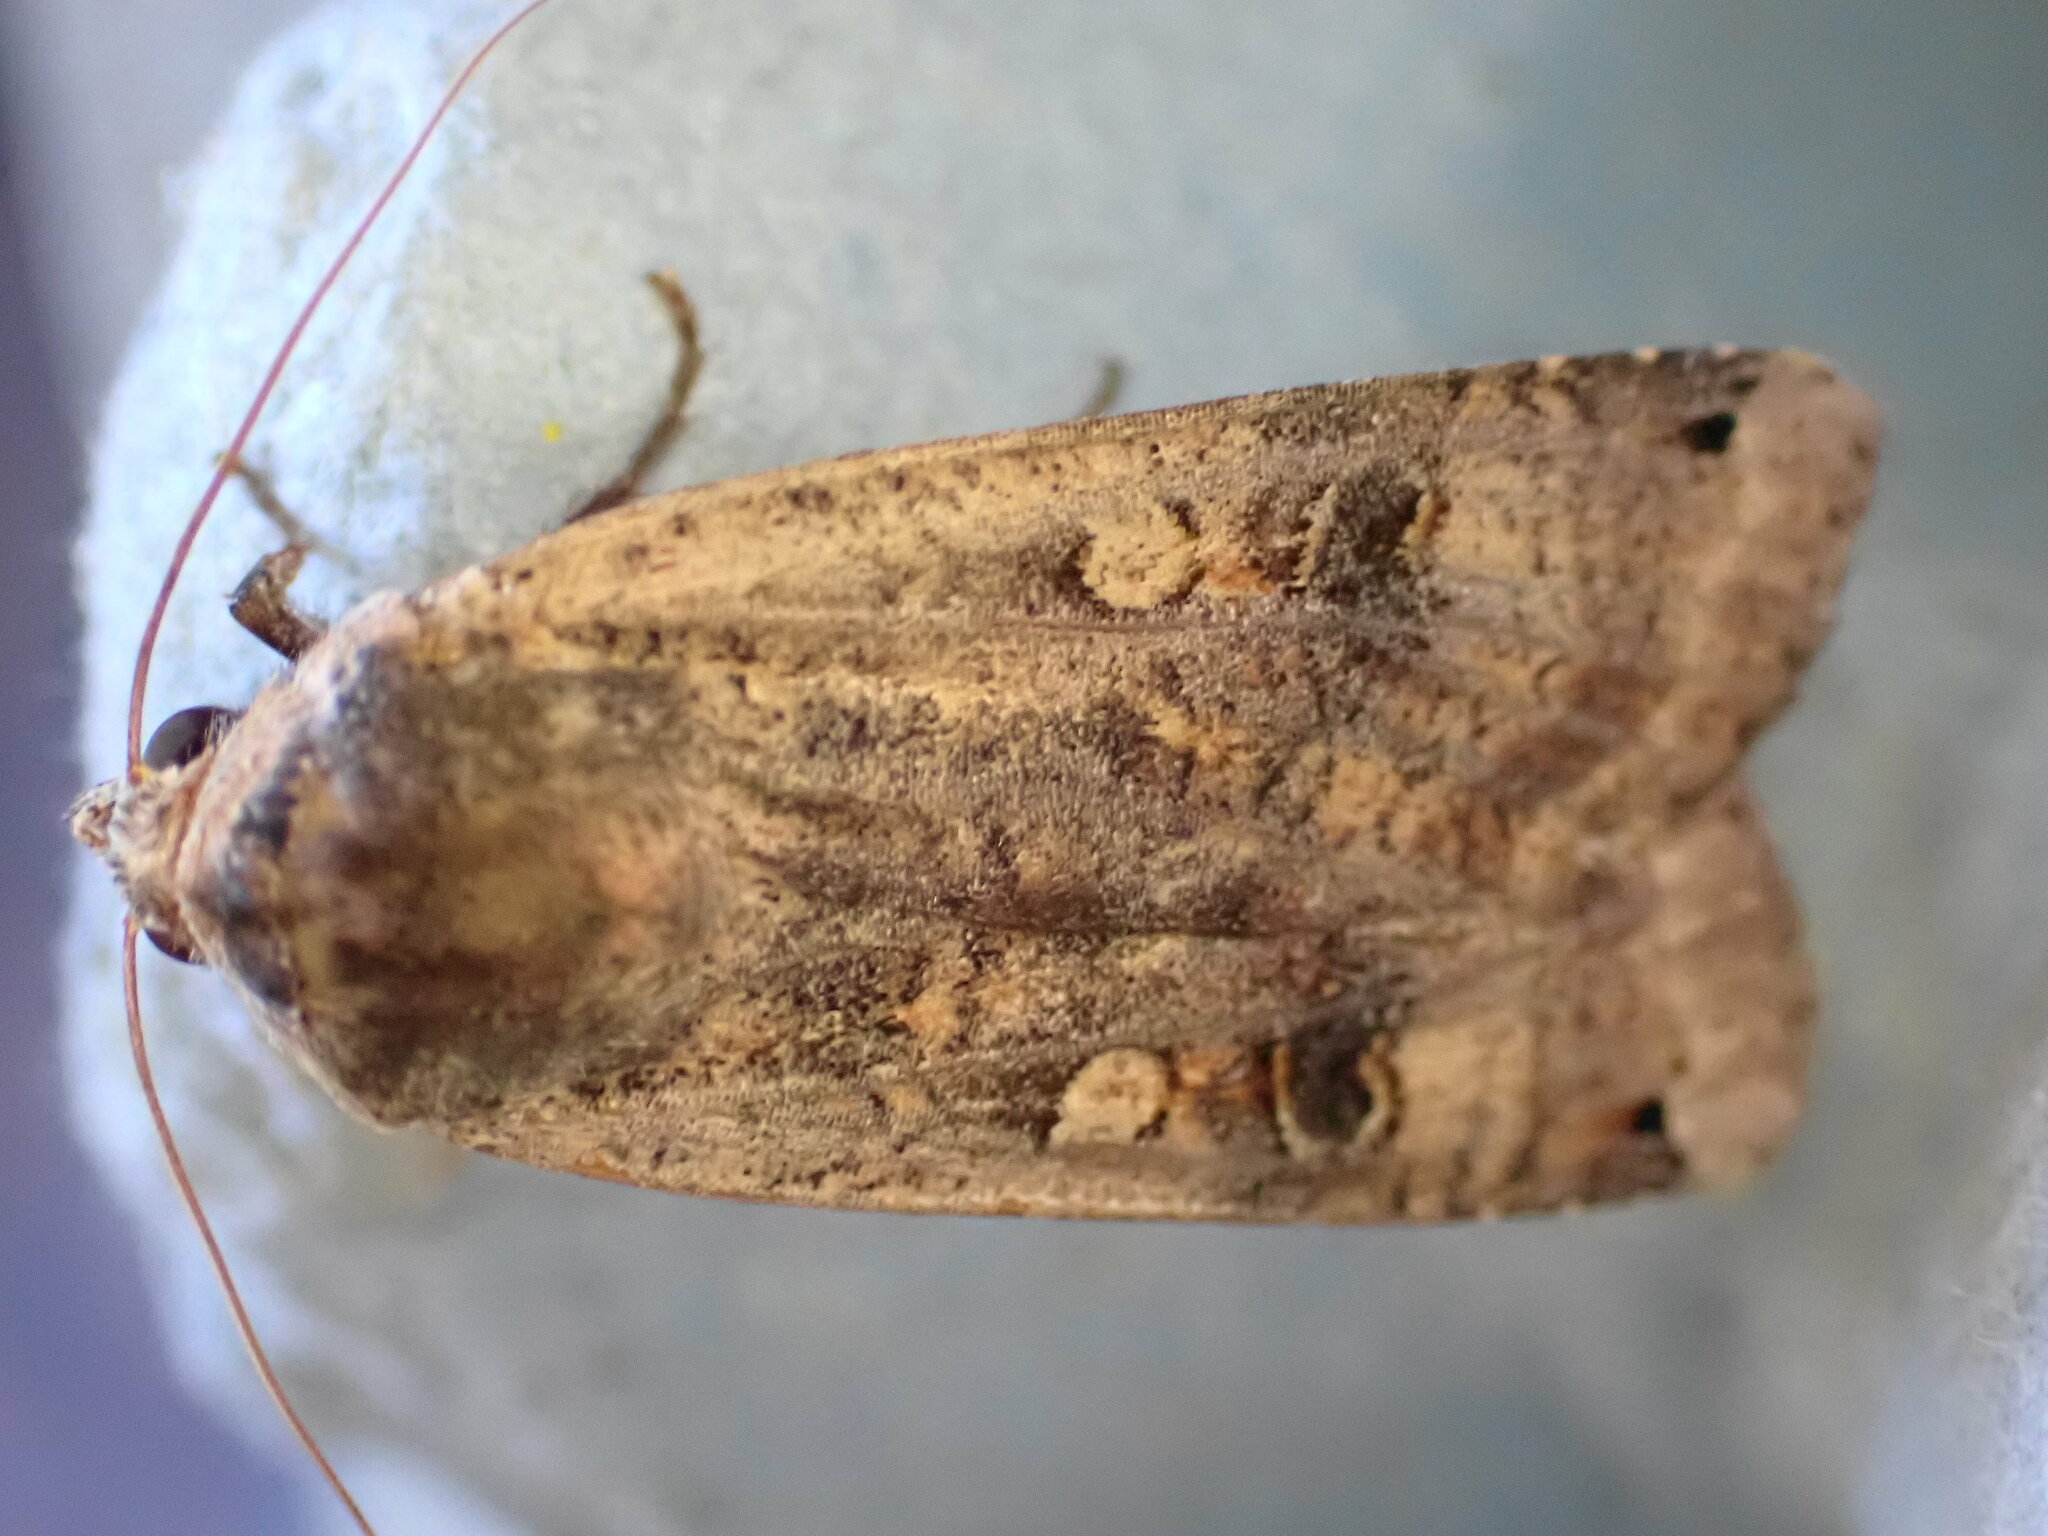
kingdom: Animalia
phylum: Arthropoda
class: Insecta
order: Lepidoptera
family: Noctuidae
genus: Noctua
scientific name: Noctua pronuba
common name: Large yellow underwing
